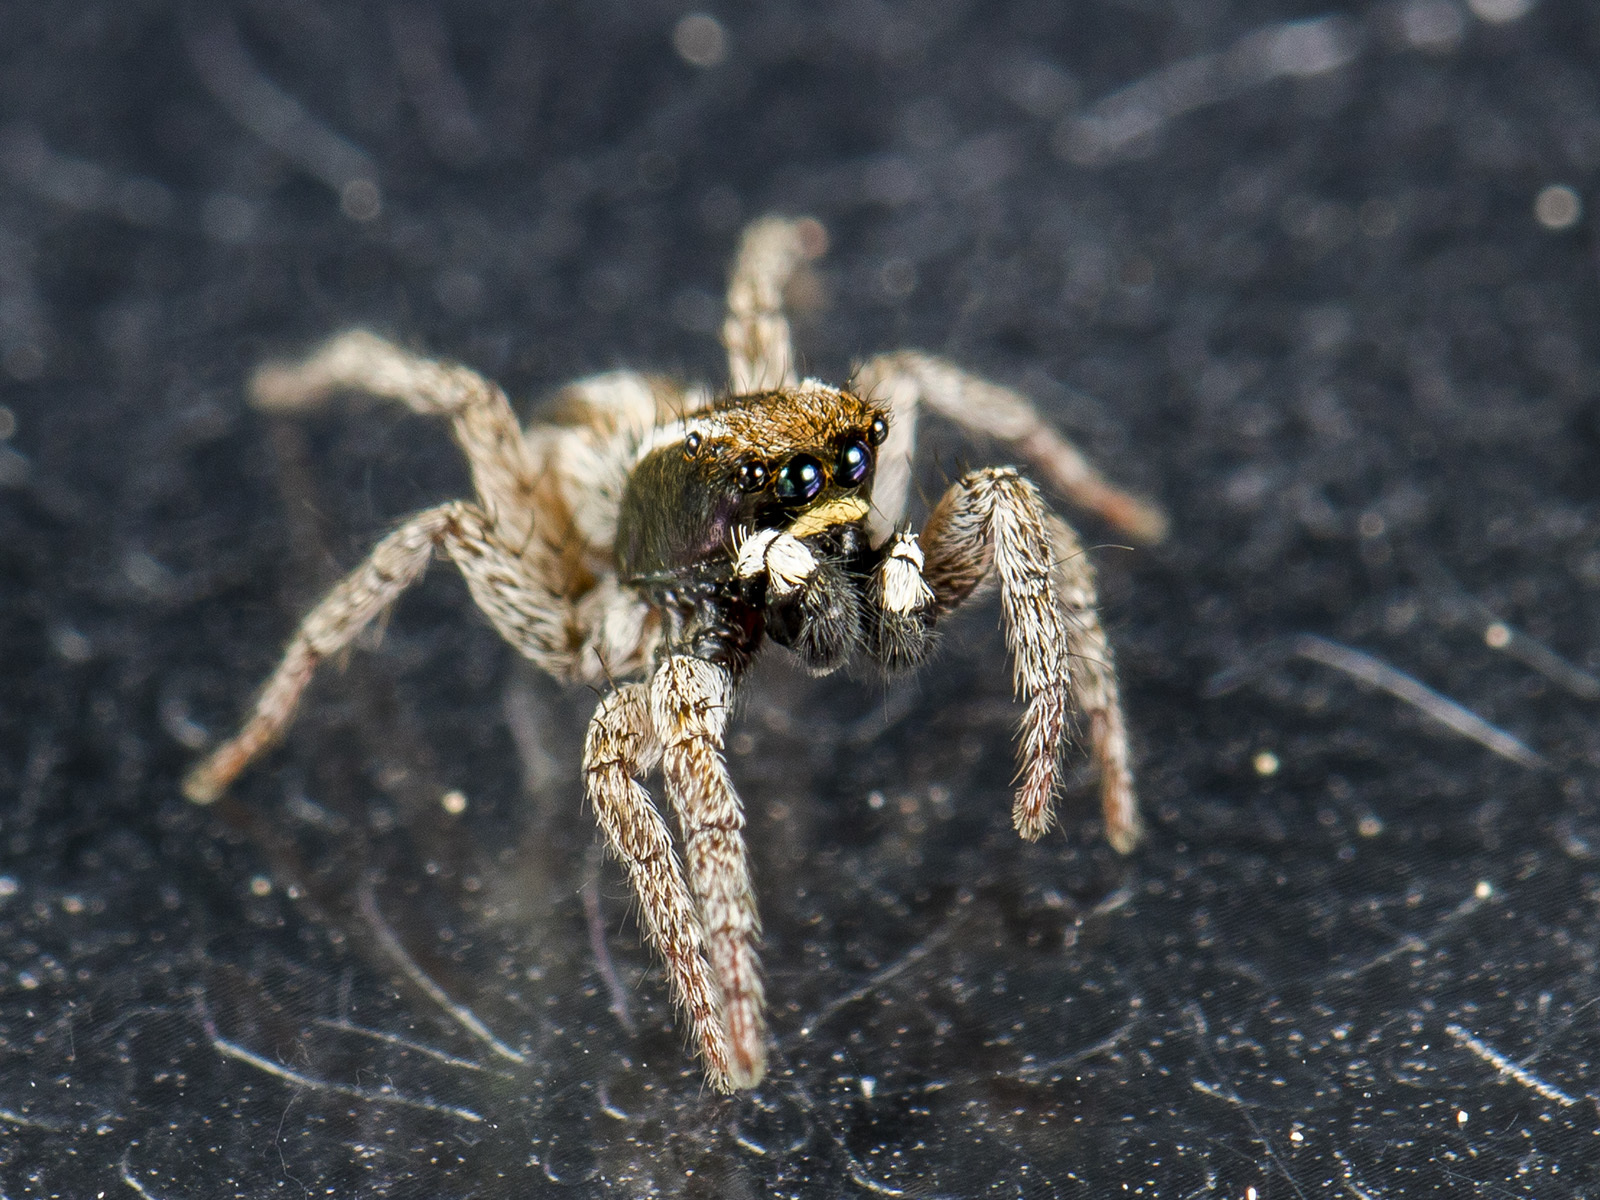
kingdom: Animalia
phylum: Arthropoda
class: Arachnida
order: Araneae
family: Salticidae
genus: Phlegra
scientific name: Phlegra andreevae
